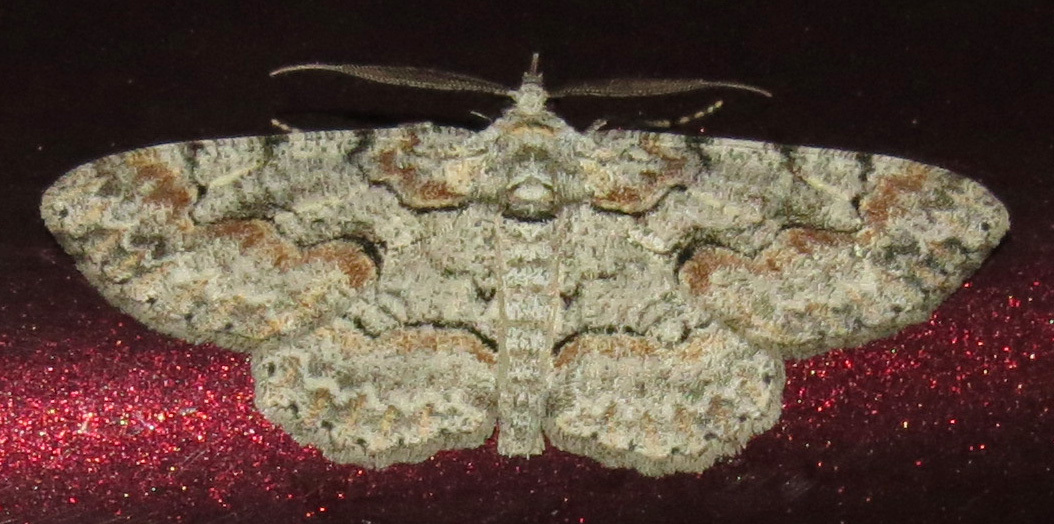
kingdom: Animalia
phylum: Arthropoda
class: Insecta
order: Lepidoptera
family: Geometridae
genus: Iridopsis
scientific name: Iridopsis defectaria
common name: Brown-shaded gray
